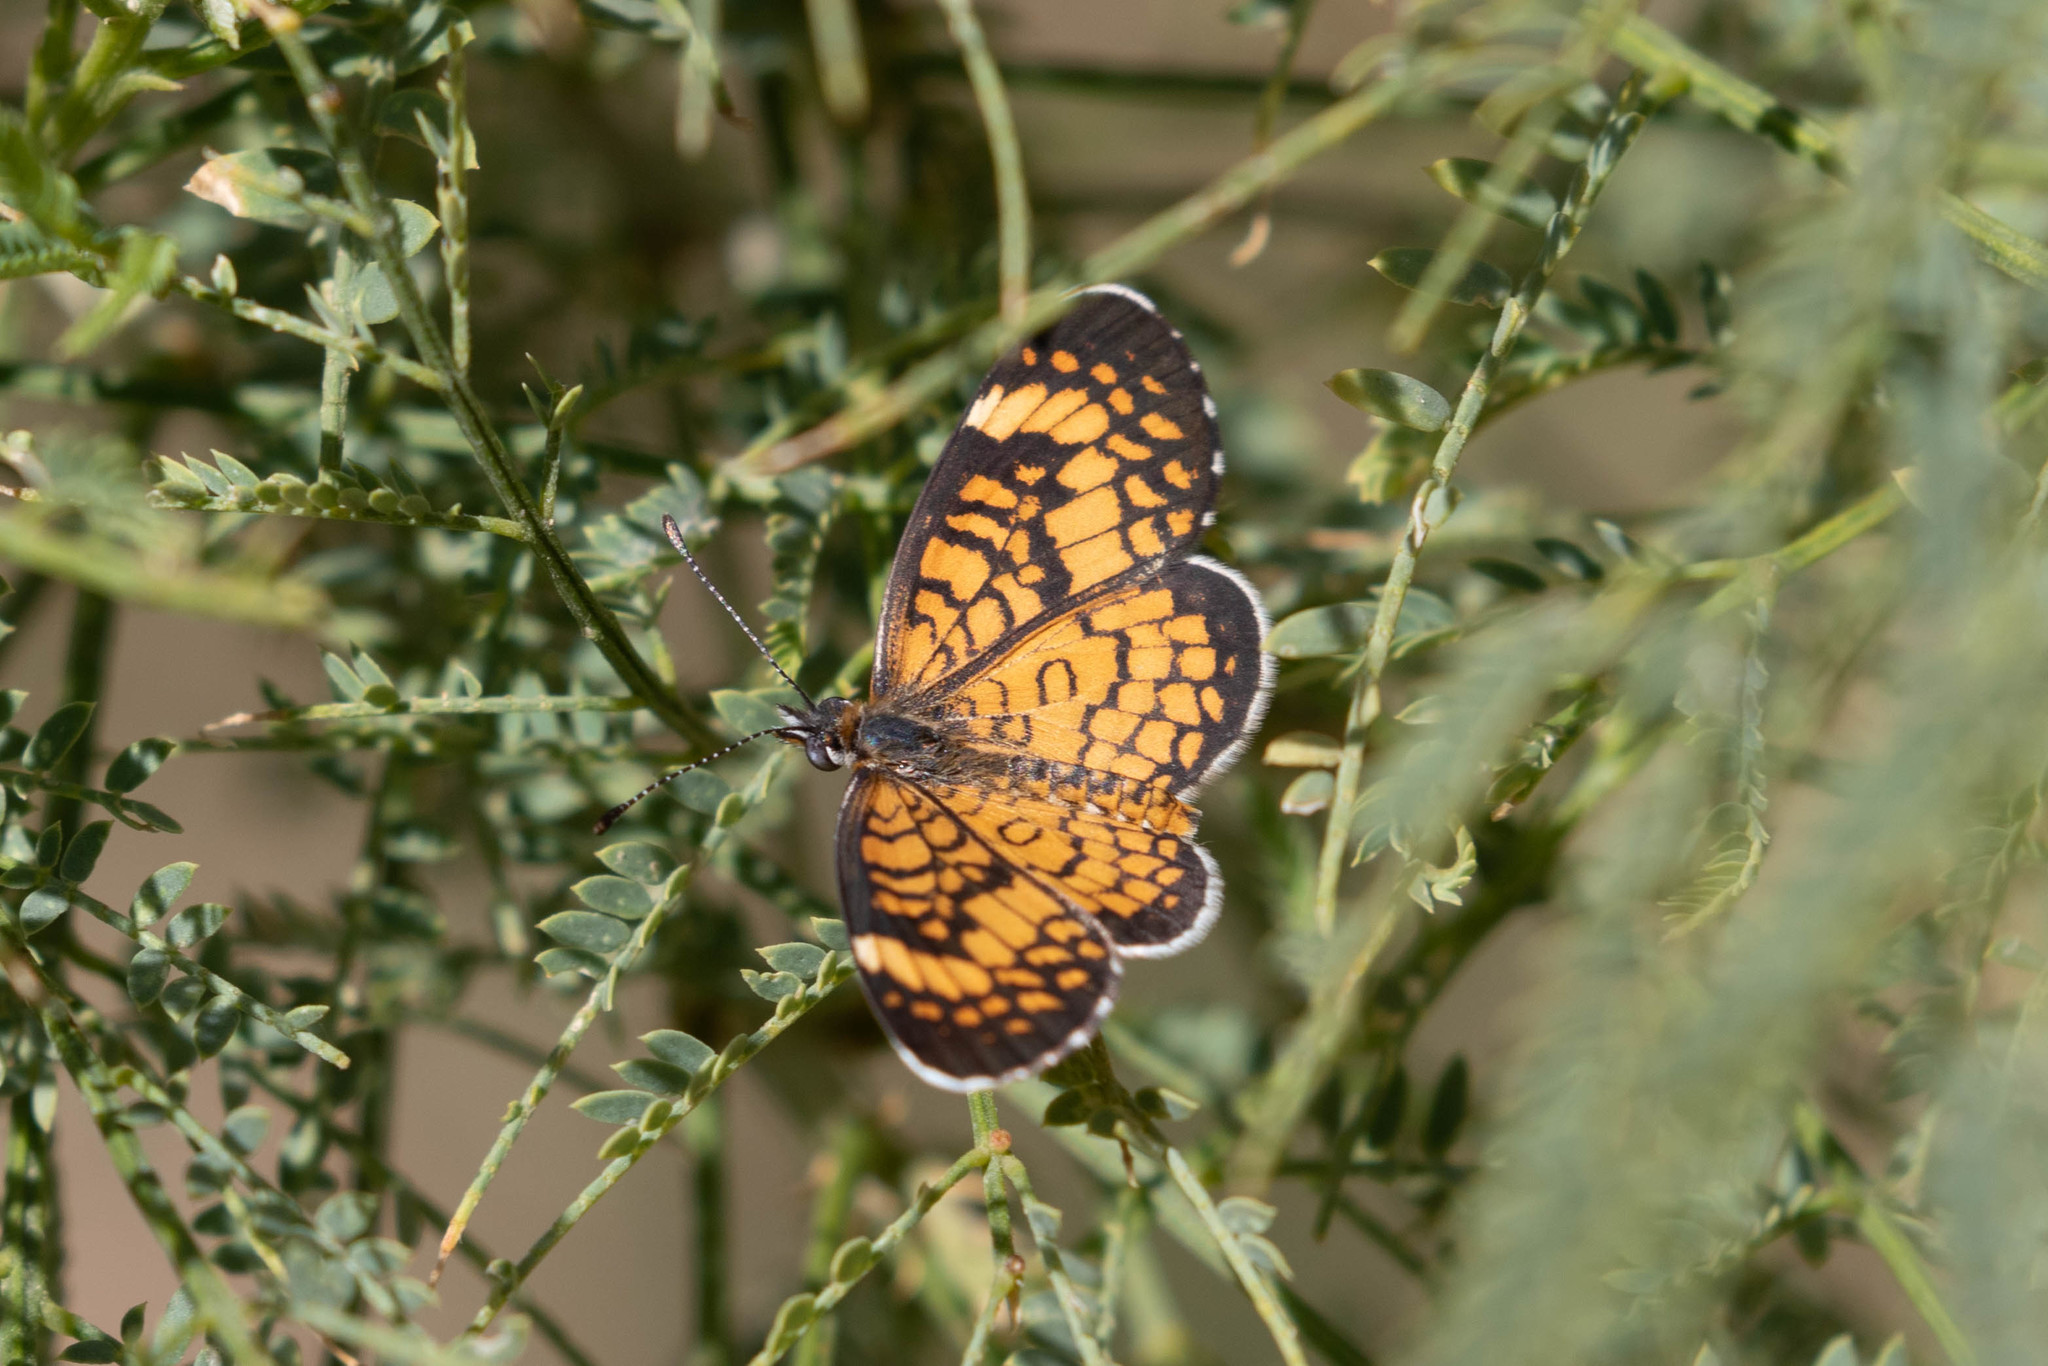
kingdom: Animalia
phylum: Arthropoda
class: Insecta
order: Lepidoptera
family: Nymphalidae
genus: Dymasia
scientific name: Dymasia dymas
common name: Tiny checkerspot
